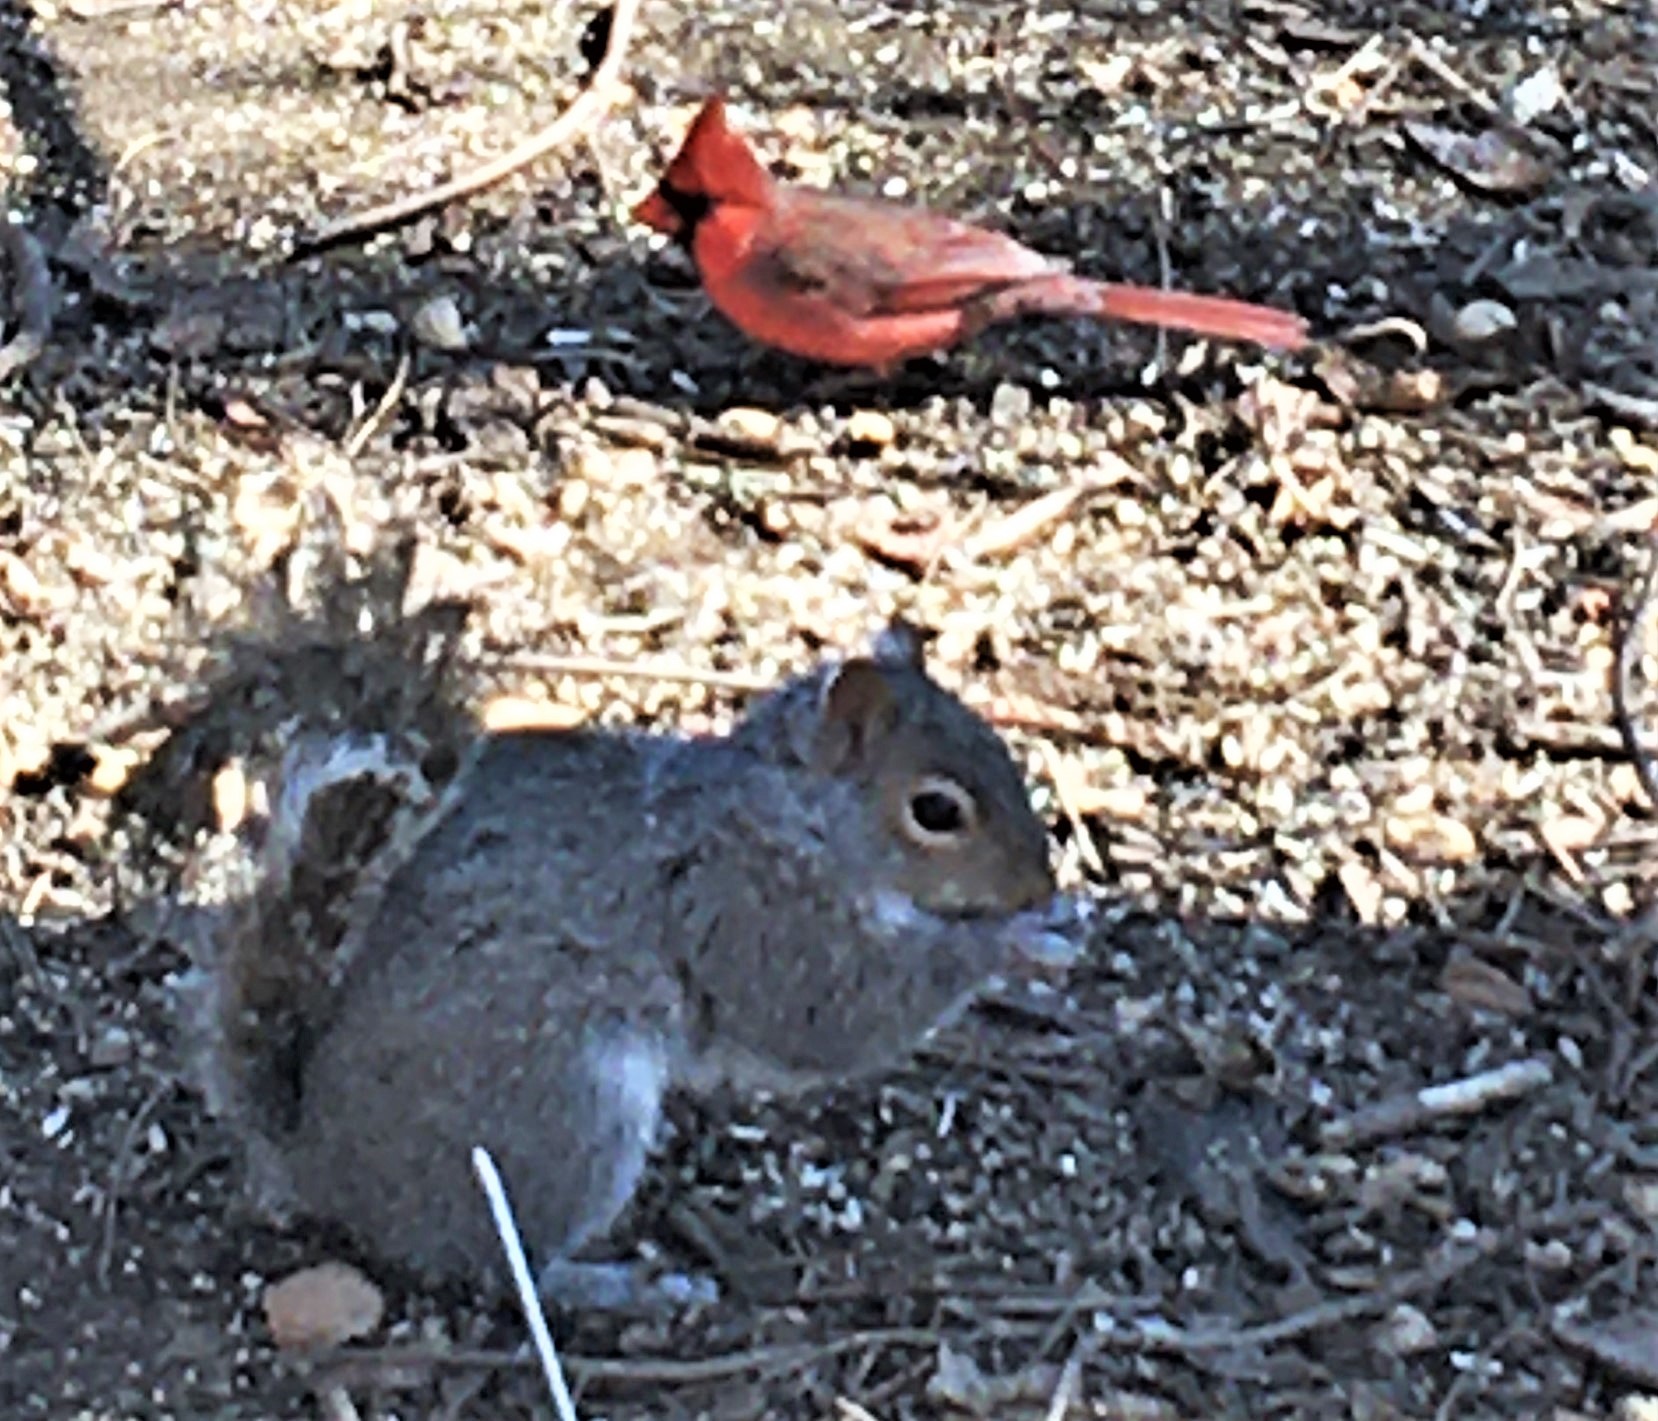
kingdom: Animalia
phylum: Chordata
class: Aves
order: Passeriformes
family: Cardinalidae
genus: Cardinalis
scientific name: Cardinalis cardinalis
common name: Northern cardinal
